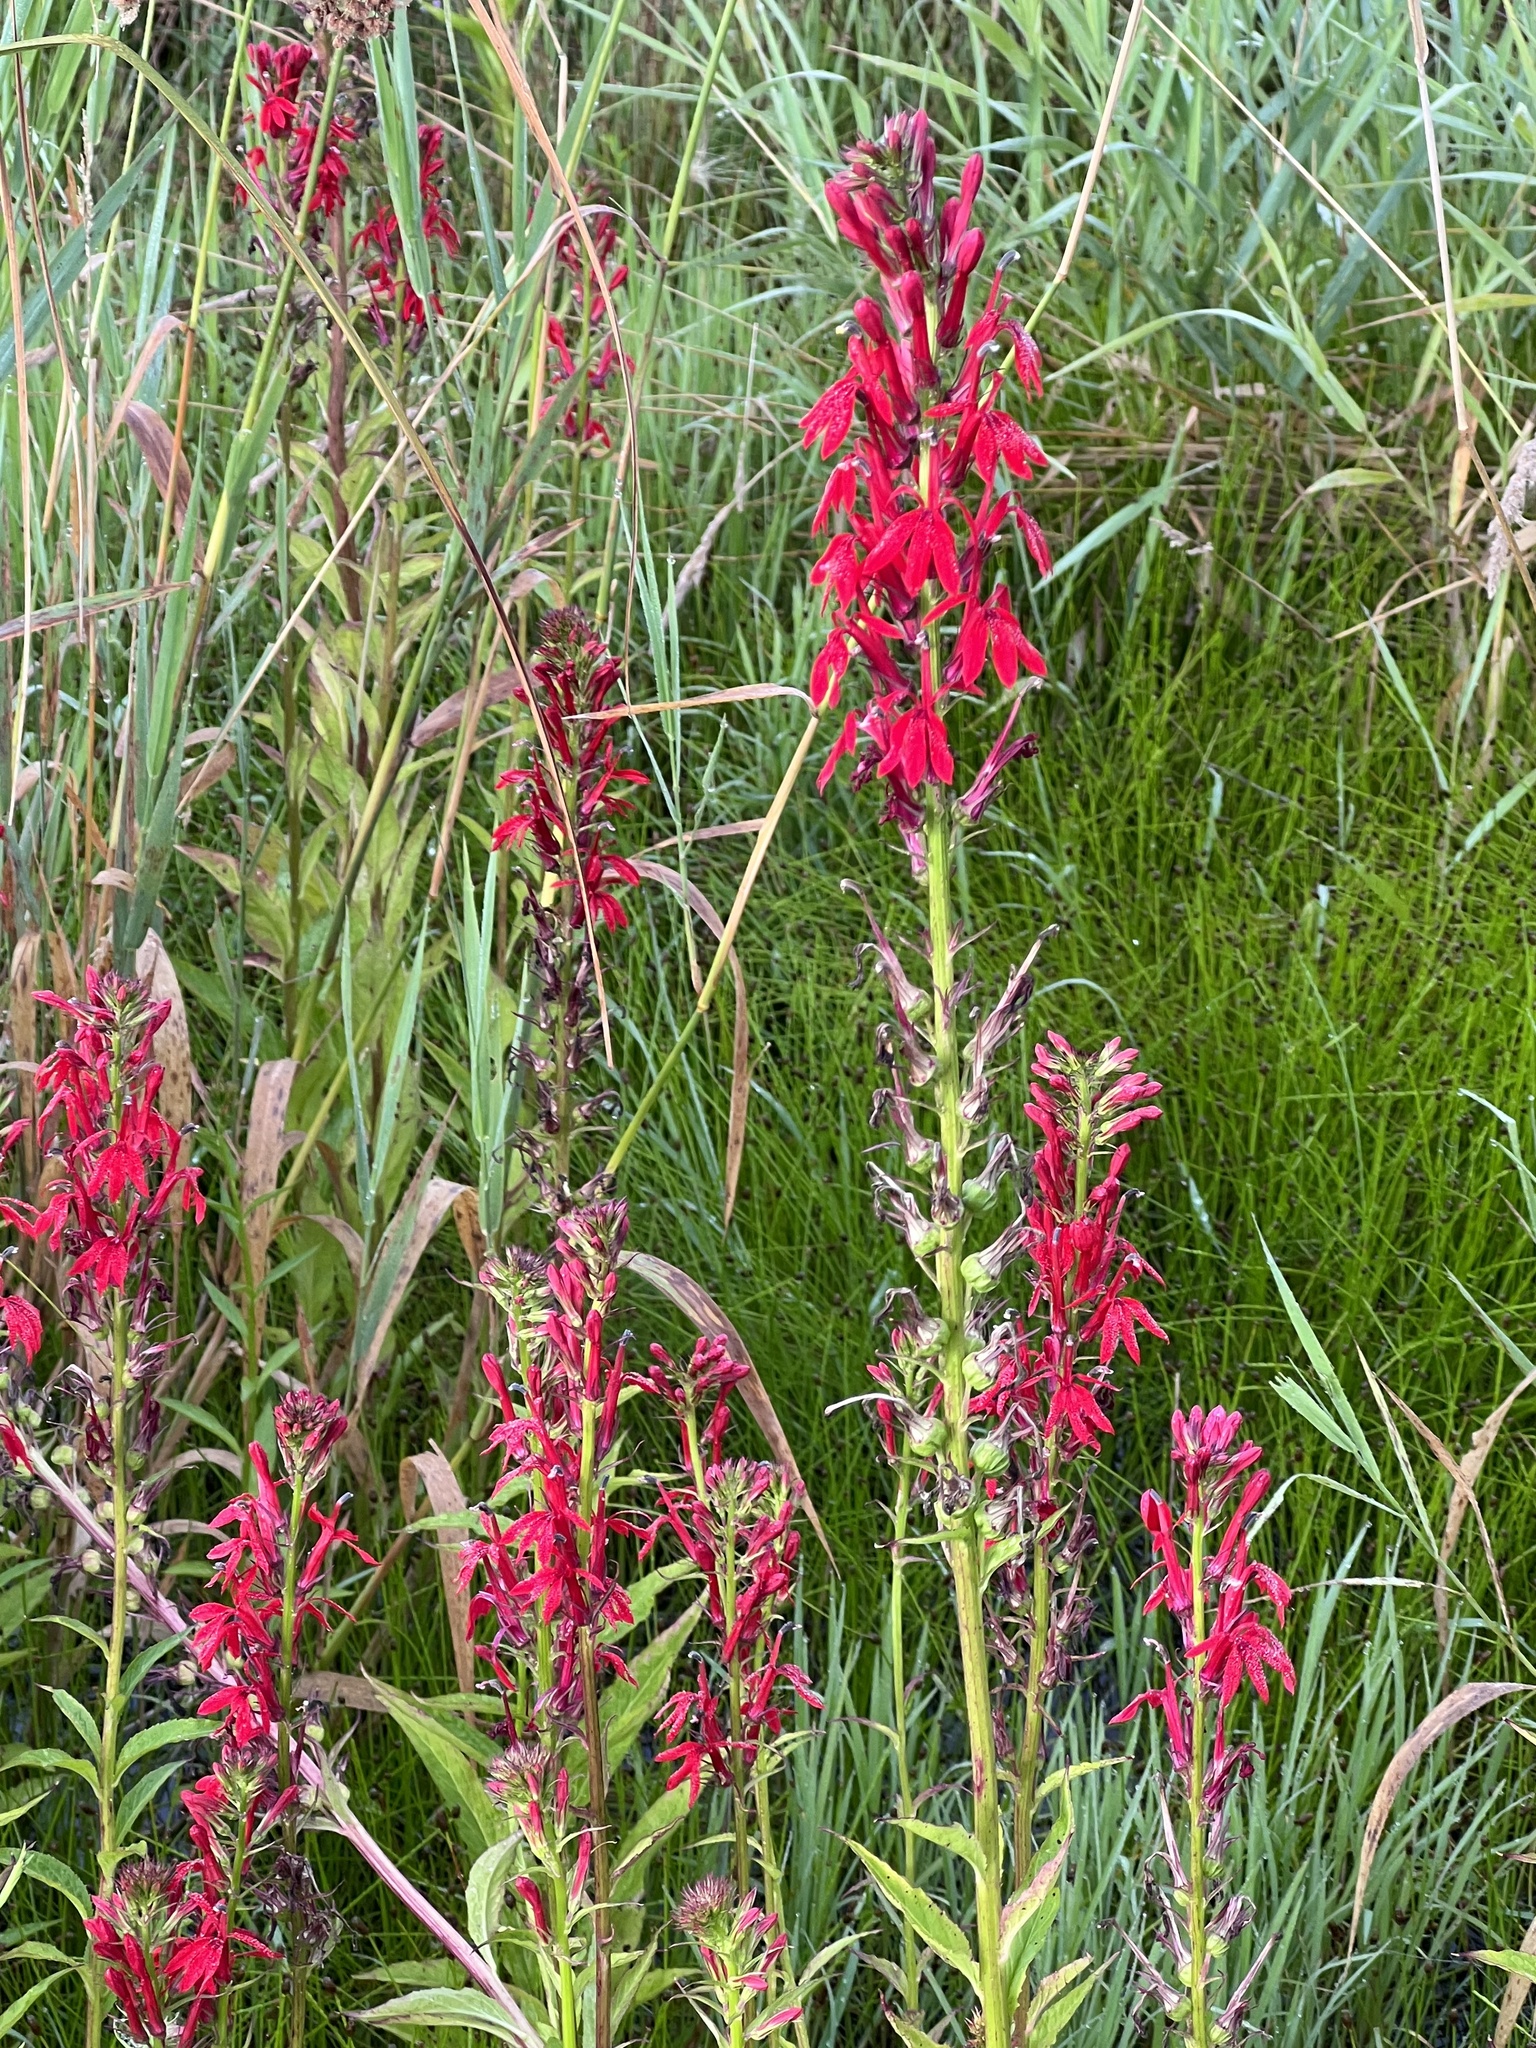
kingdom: Plantae
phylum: Tracheophyta
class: Magnoliopsida
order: Asterales
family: Campanulaceae
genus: Lobelia
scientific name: Lobelia cardinalis
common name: Cardinal flower
